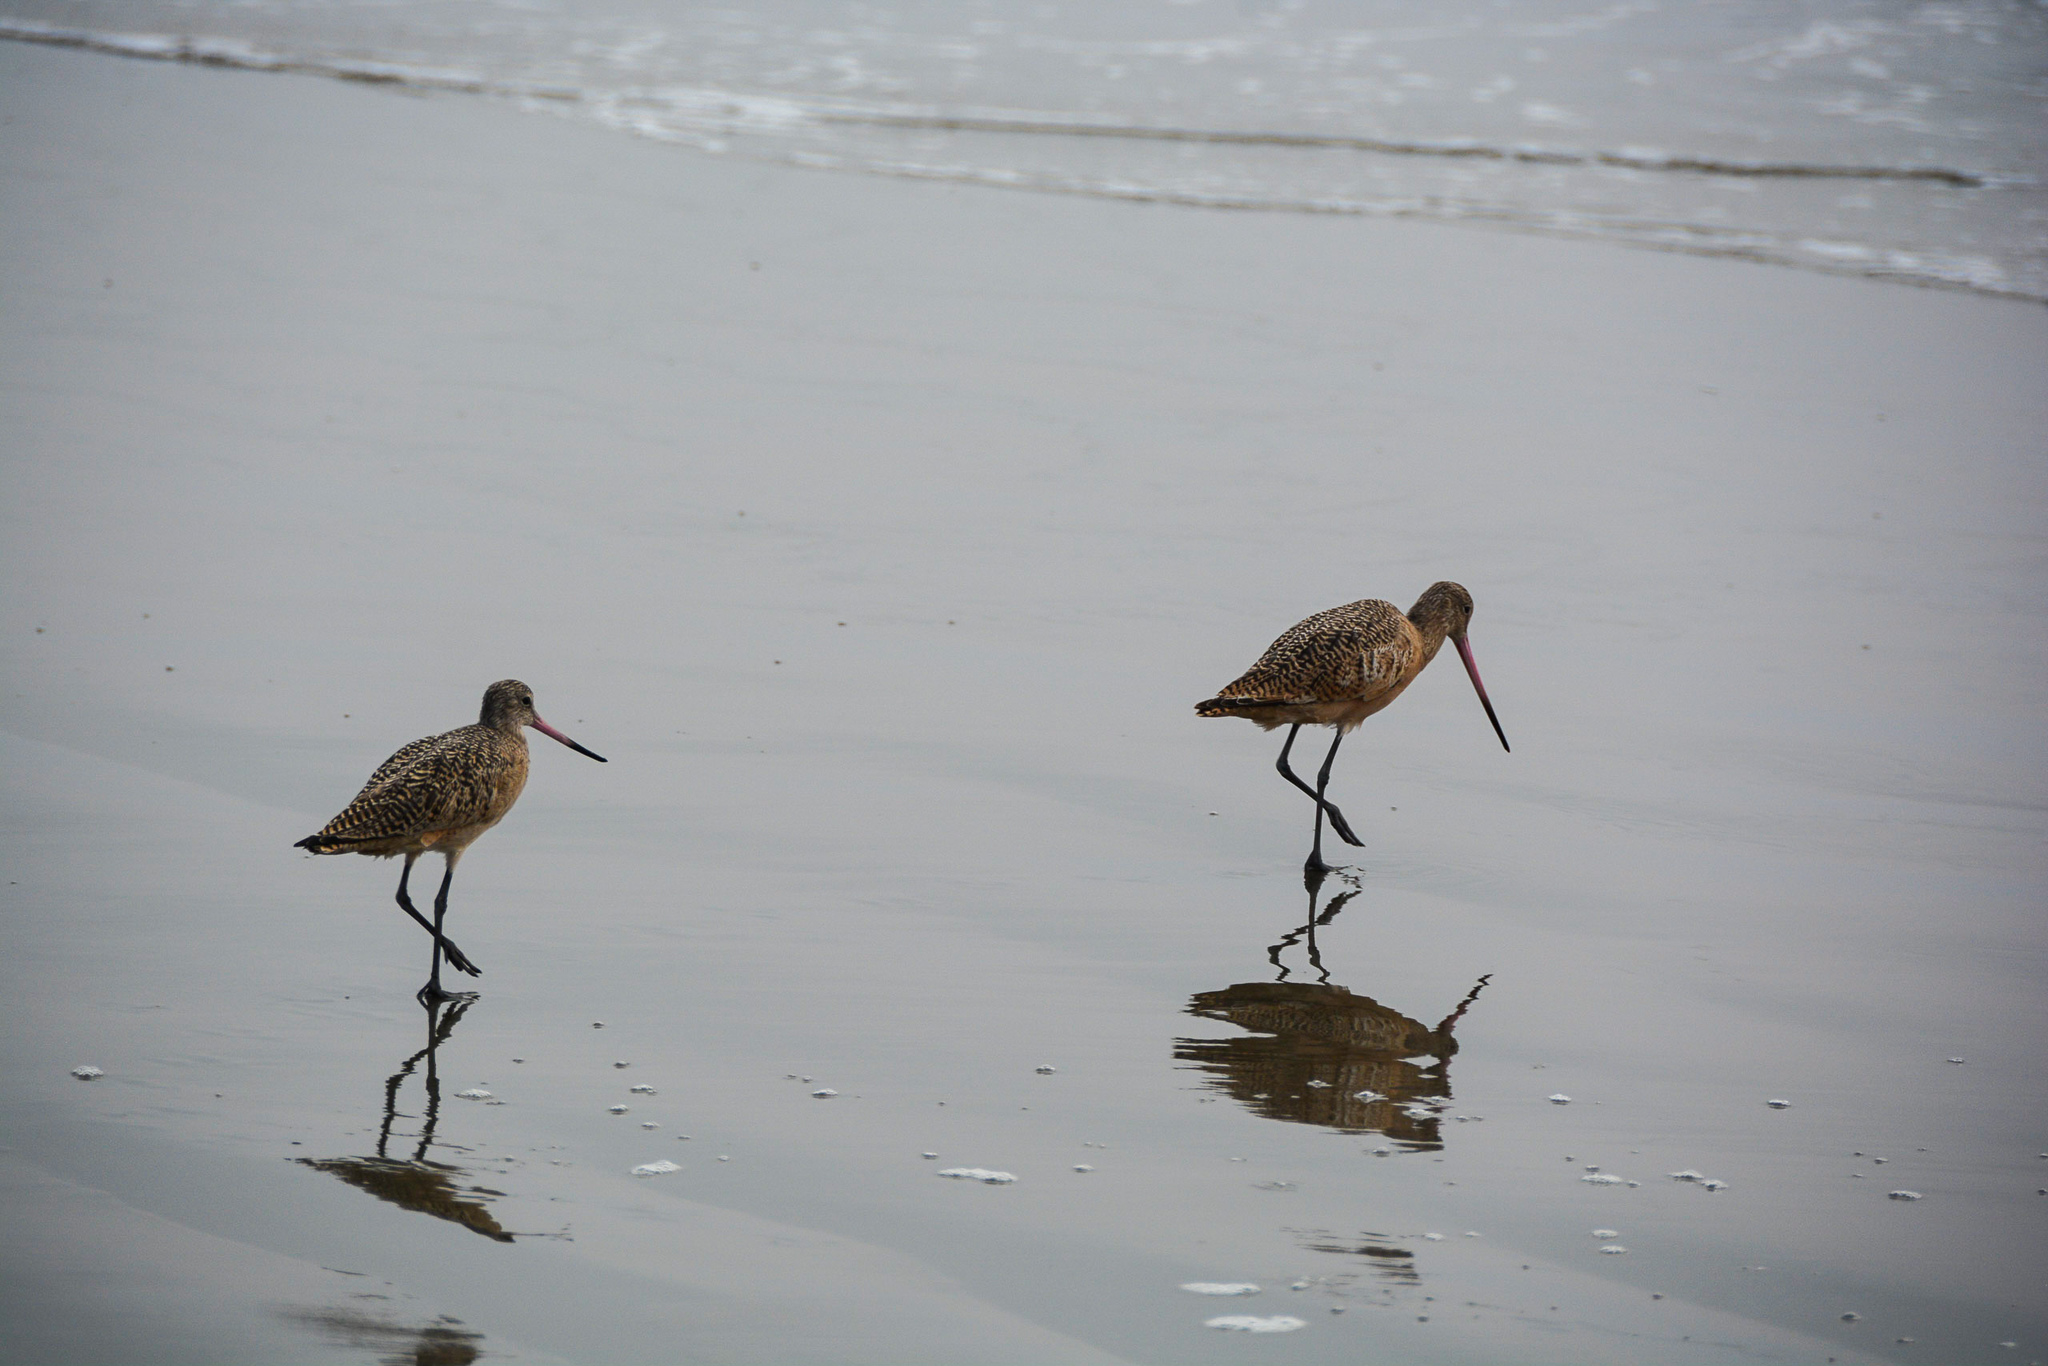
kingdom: Animalia
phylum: Chordata
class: Aves
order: Charadriiformes
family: Scolopacidae
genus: Limosa
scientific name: Limosa fedoa
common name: Marbled godwit
